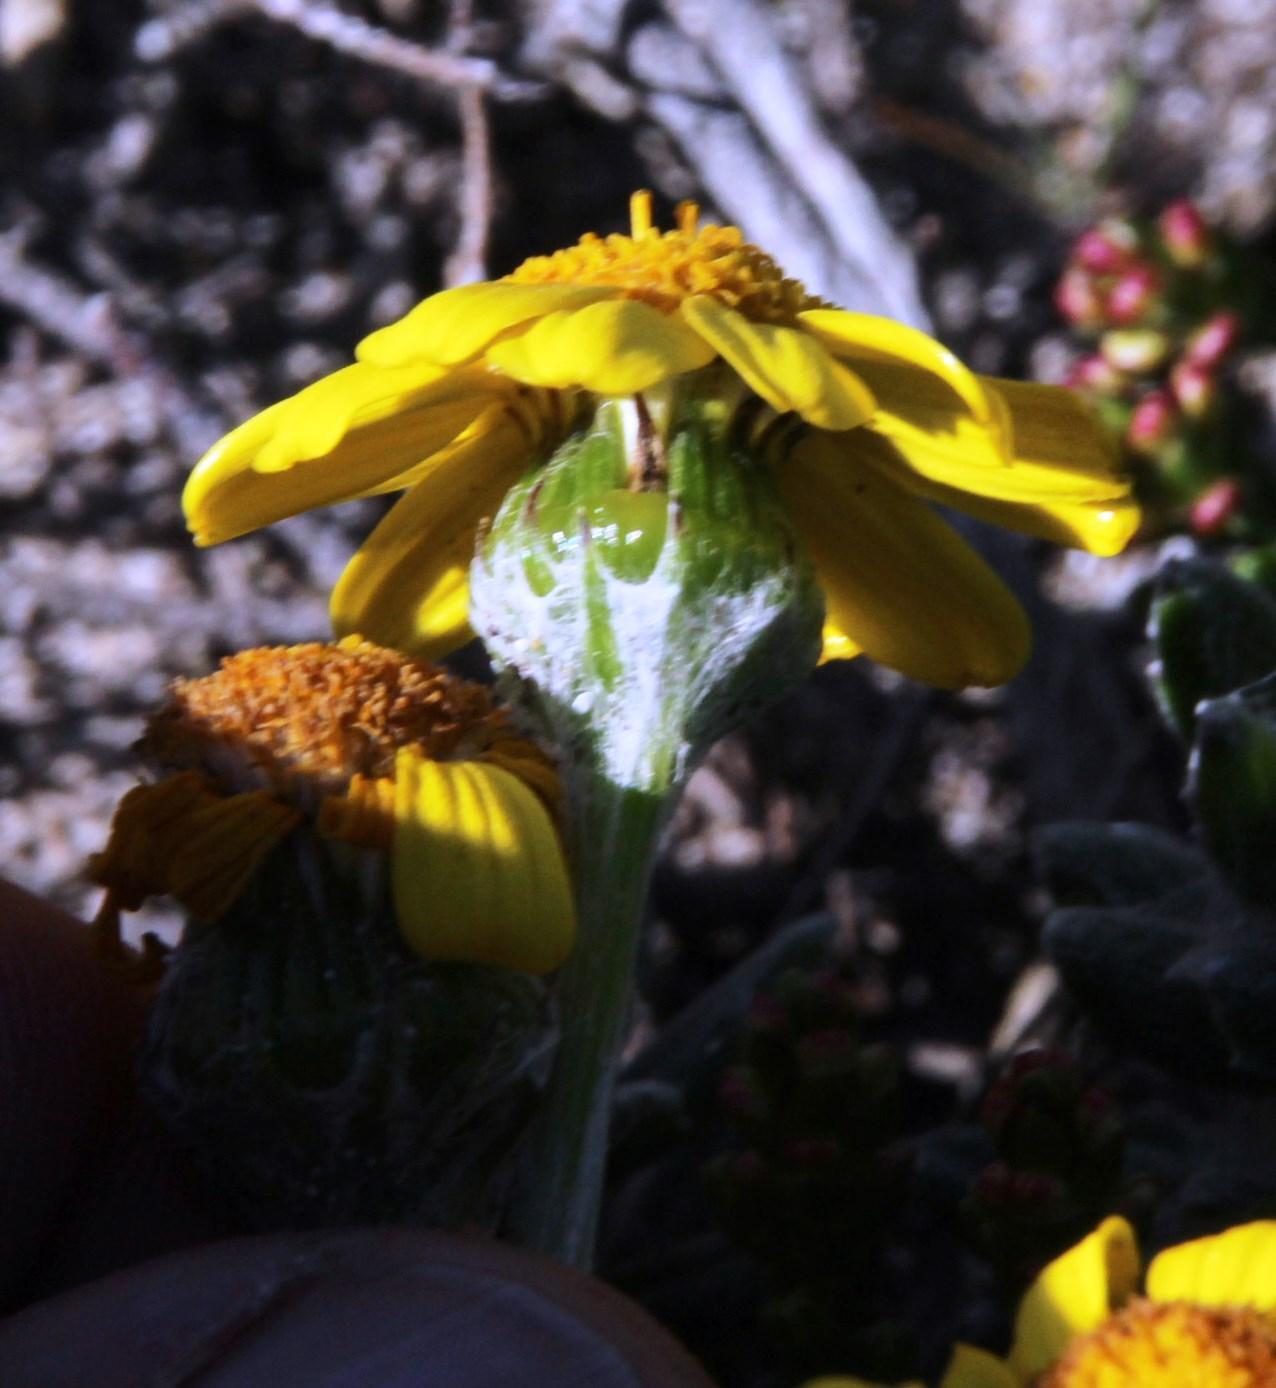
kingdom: Plantae
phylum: Tracheophyta
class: Magnoliopsida
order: Asterales
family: Asteraceae
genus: Senecio
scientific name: Senecio arniciflorus
